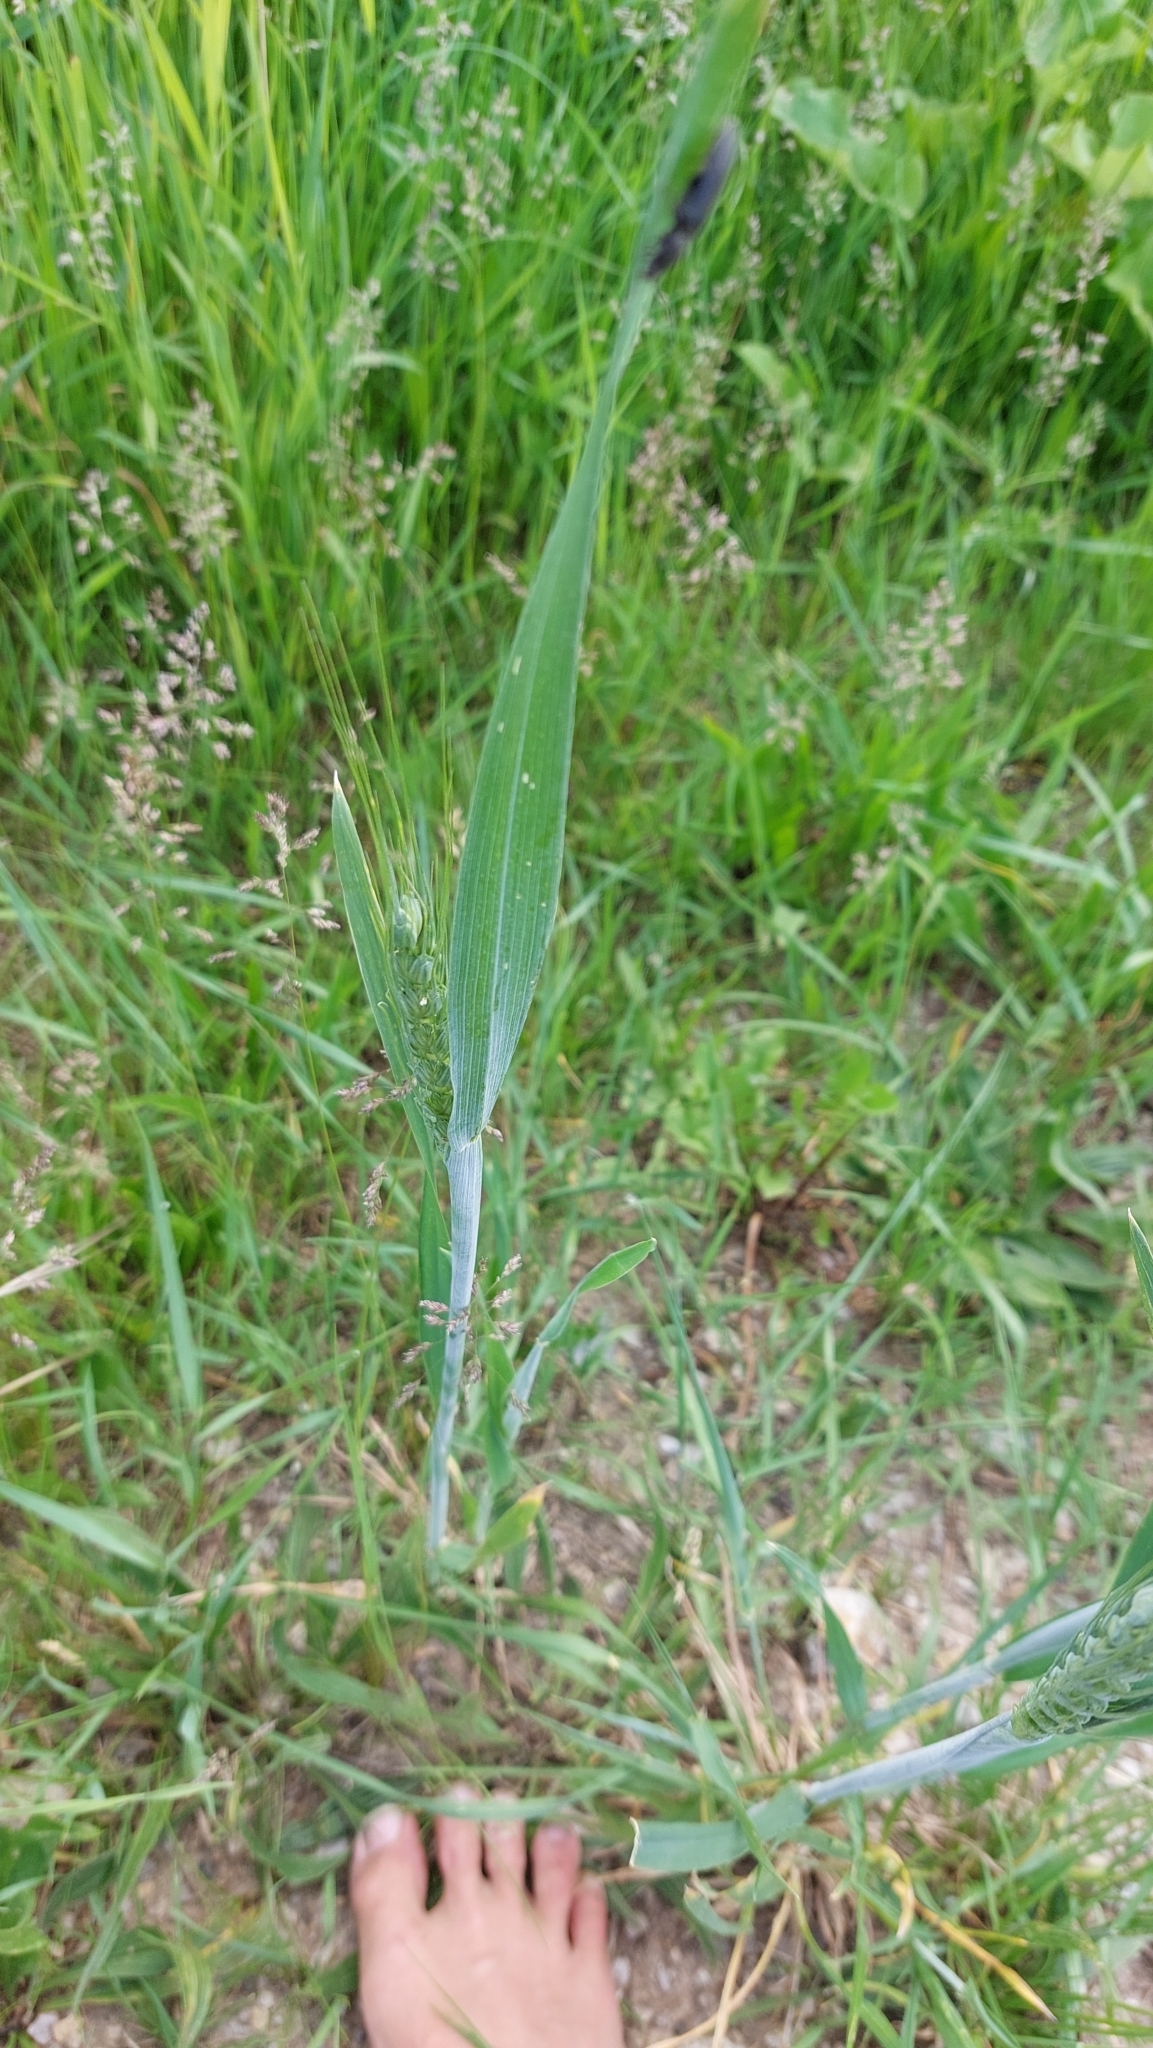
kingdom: Plantae
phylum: Tracheophyta
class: Liliopsida
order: Poales
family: Poaceae
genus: Triticum
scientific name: Triticum aestivum
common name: Common wheat
